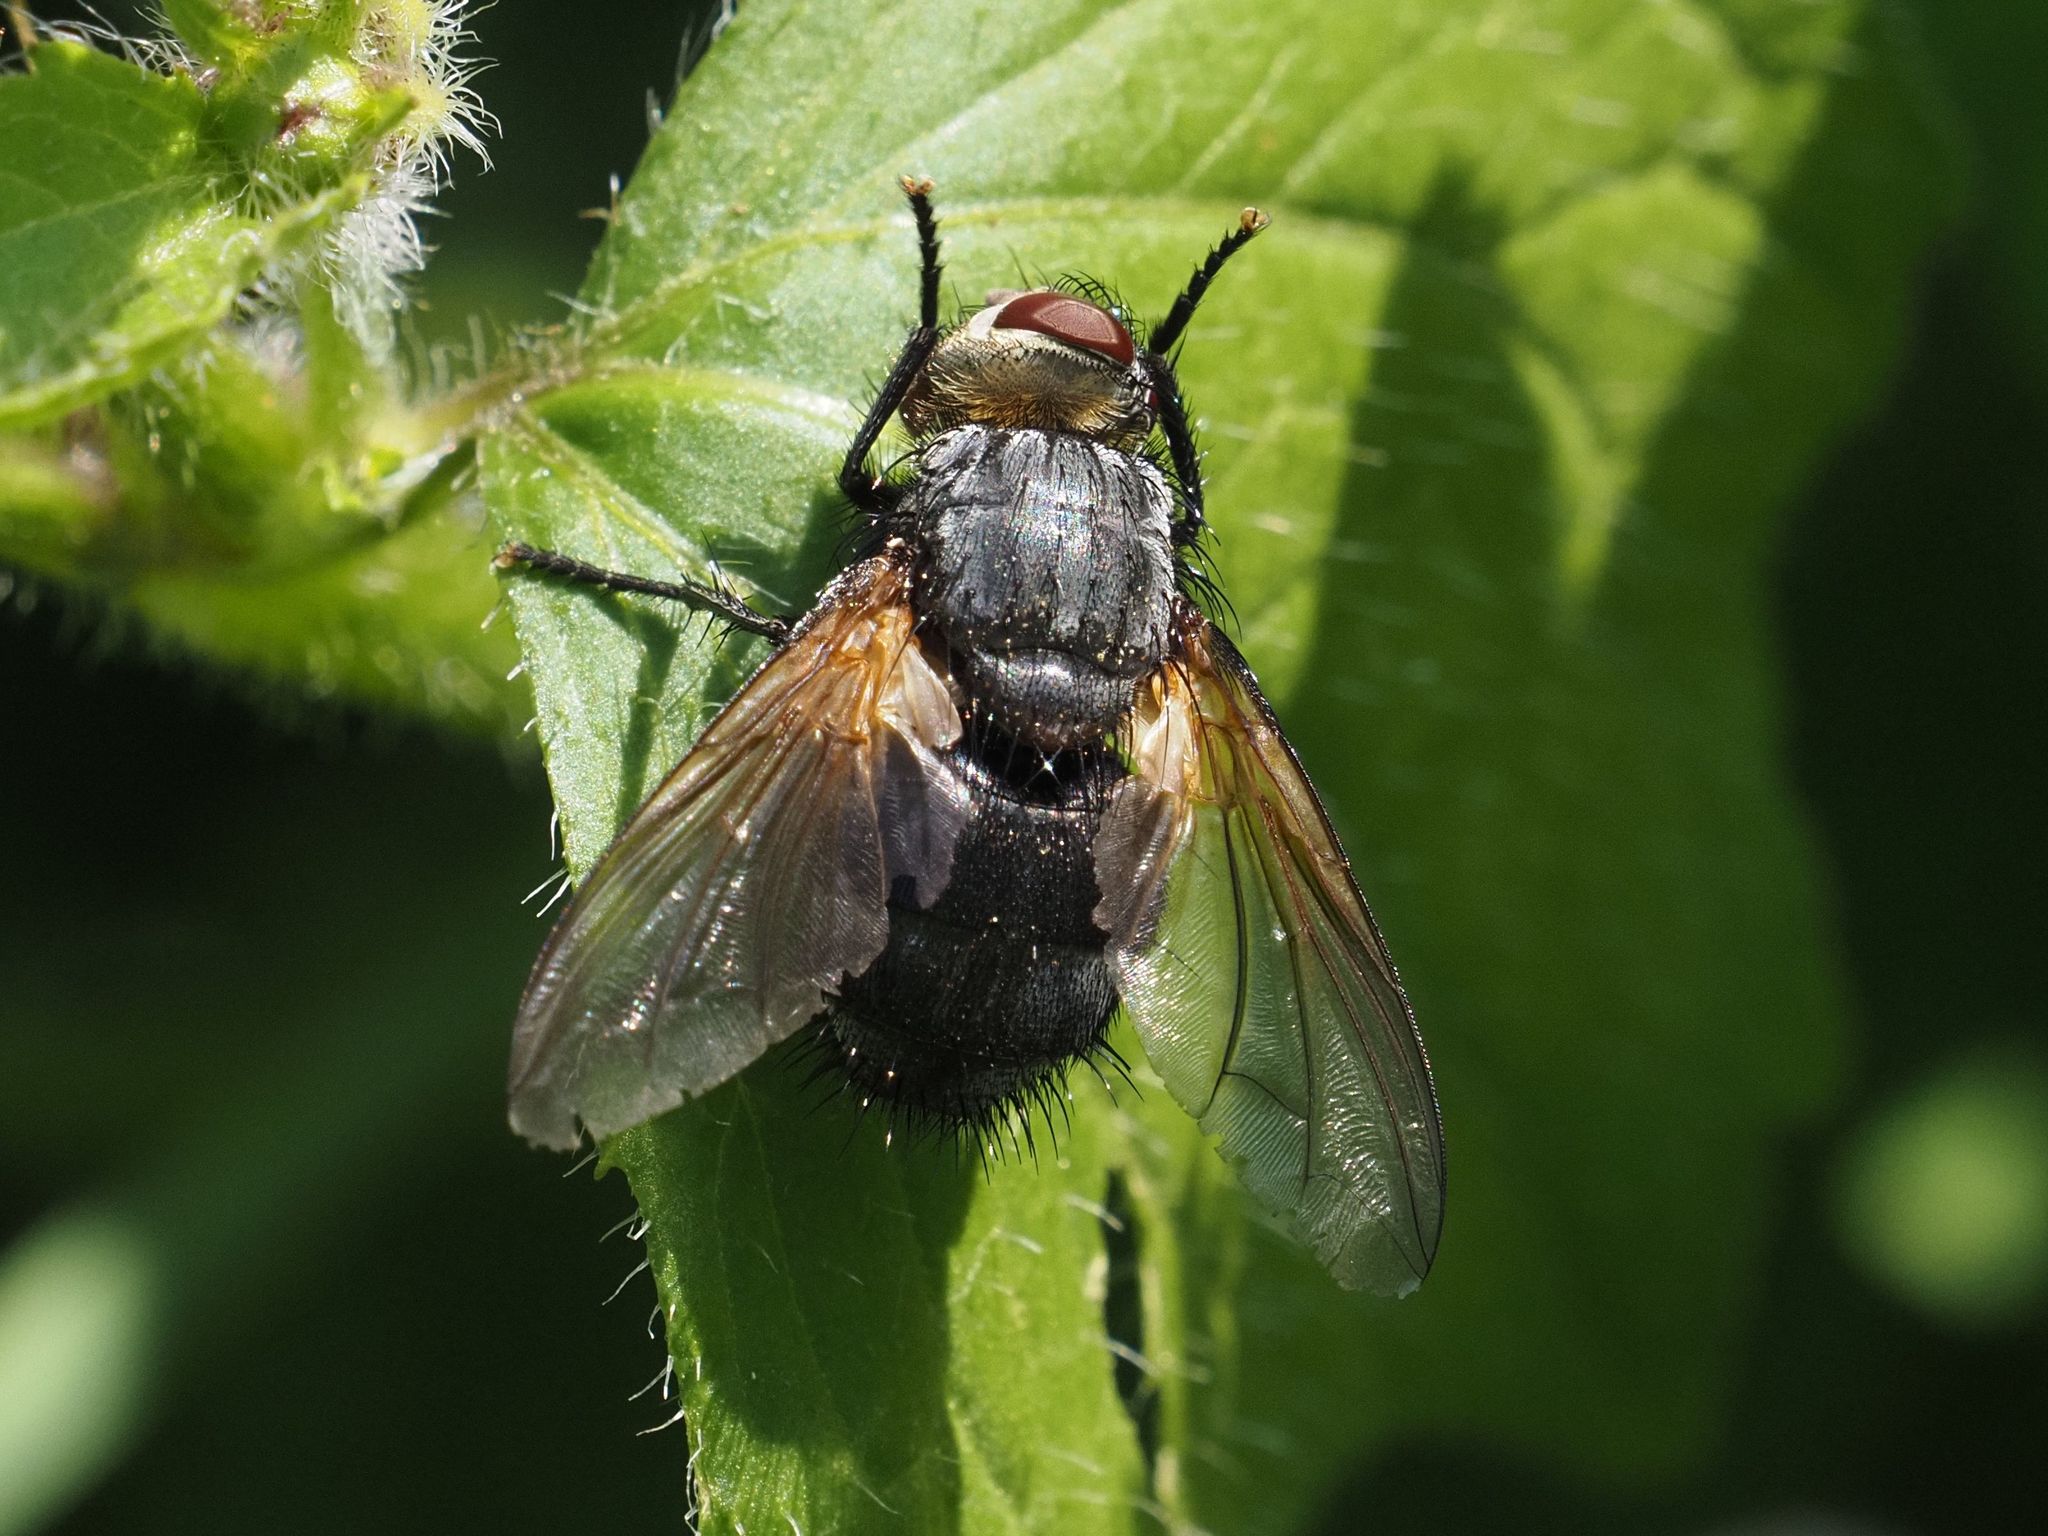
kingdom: Animalia
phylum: Arthropoda
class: Insecta
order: Diptera
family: Tachinidae
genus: Nemoraea
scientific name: Nemoraea pellucida
